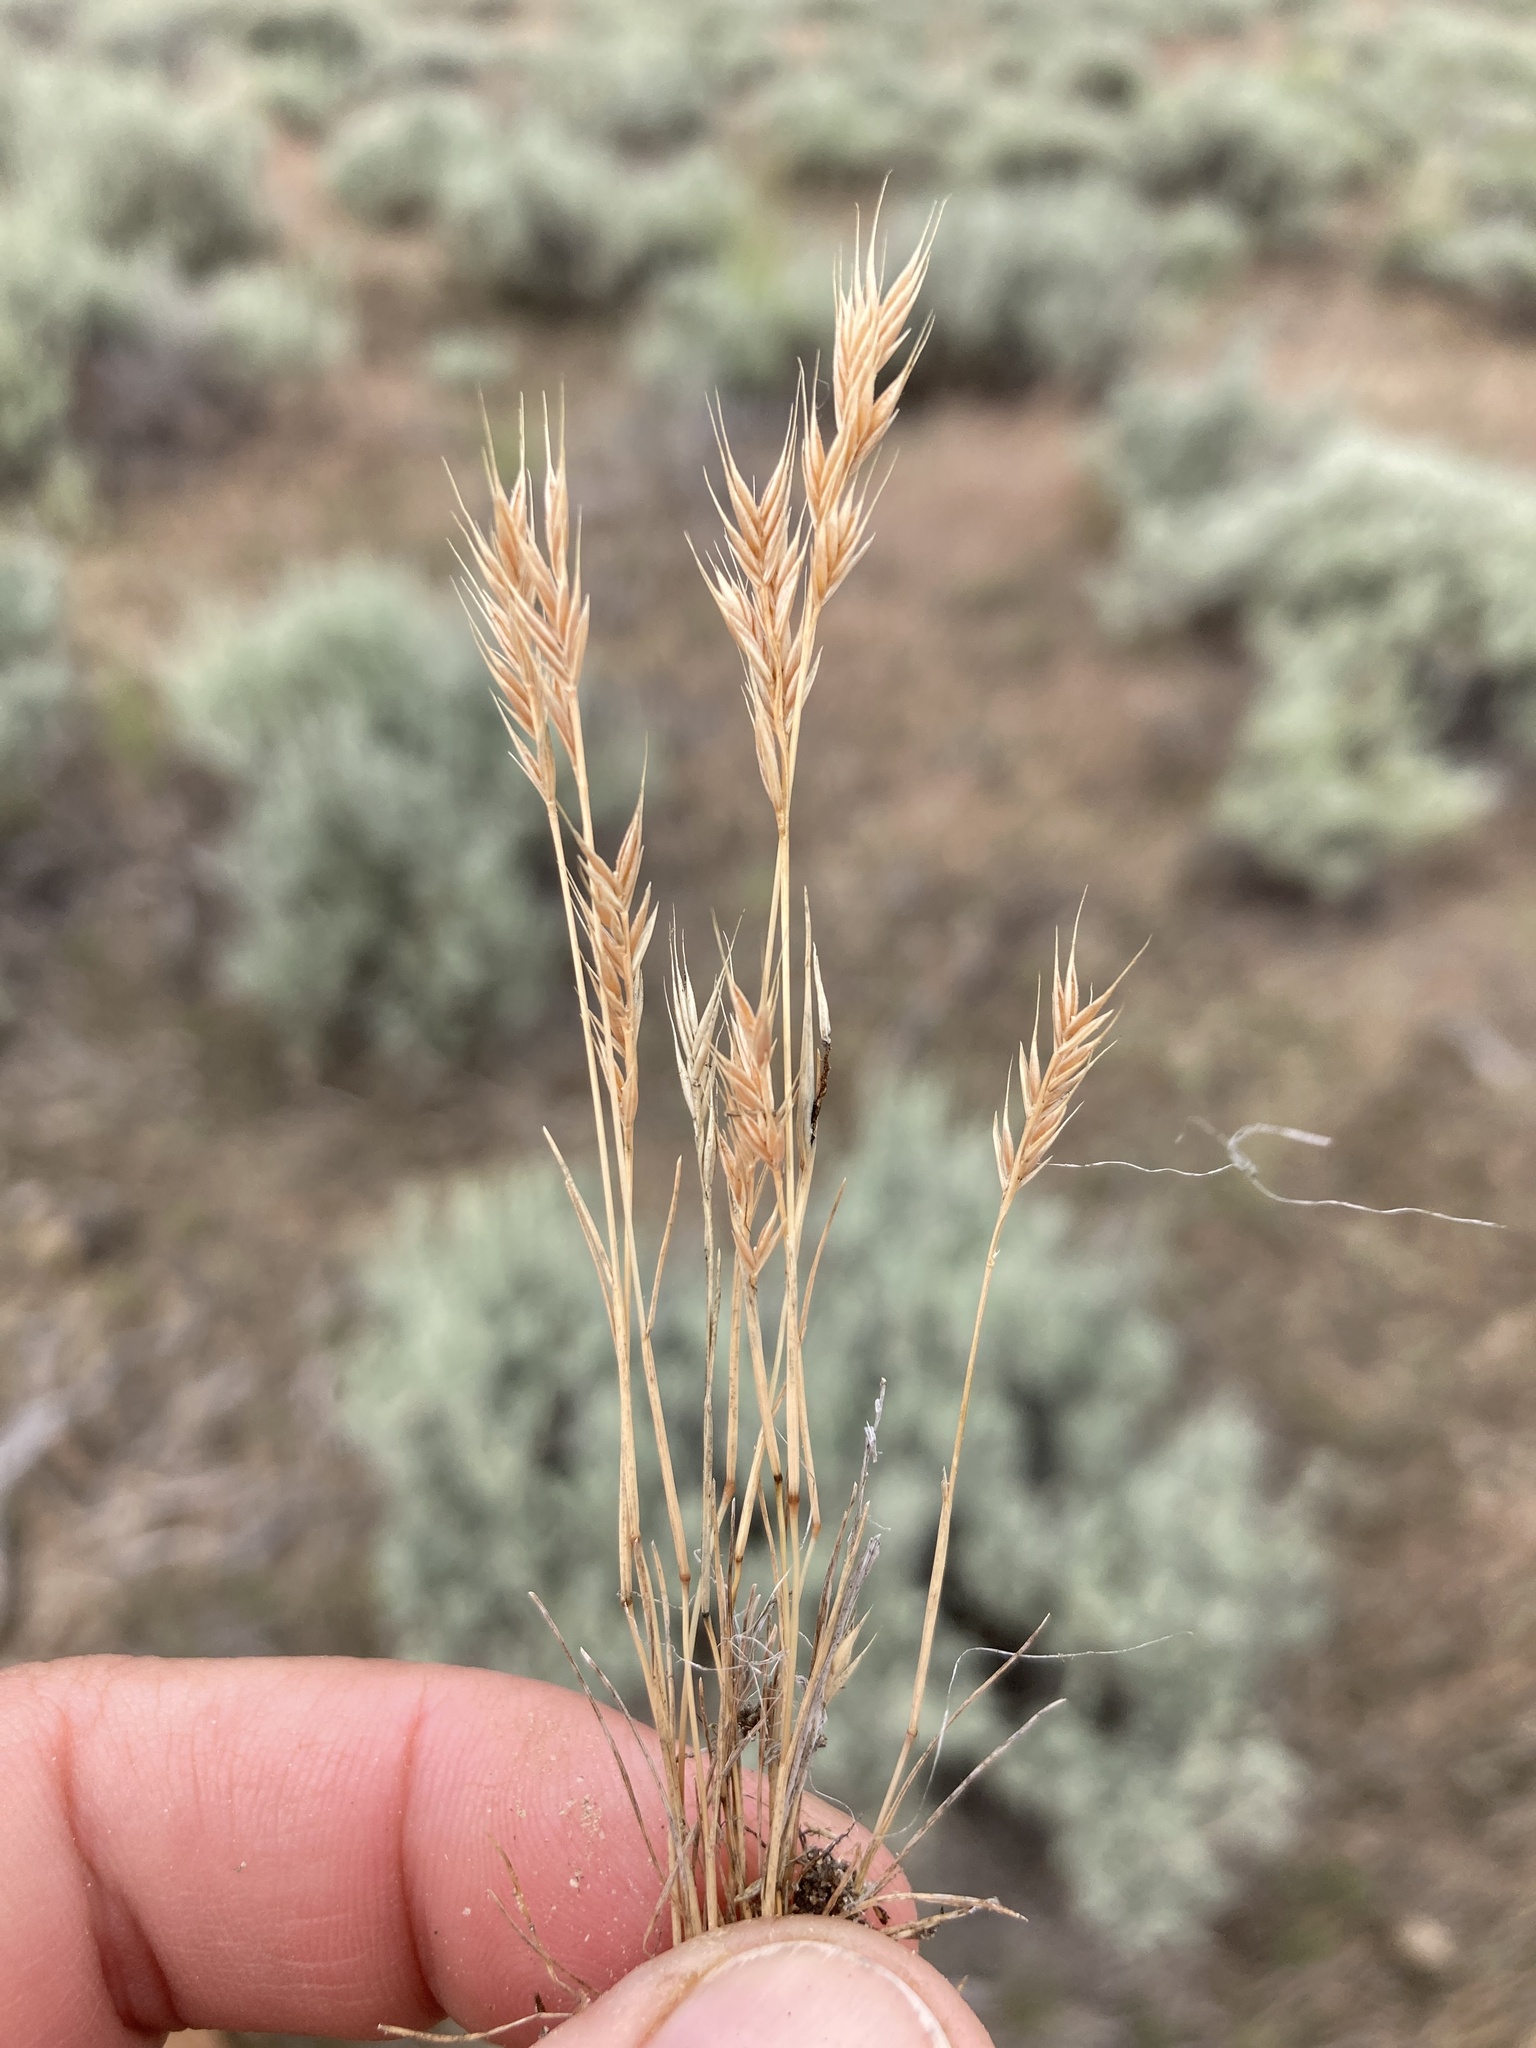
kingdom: Plantae
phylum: Tracheophyta
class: Liliopsida
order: Poales
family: Poaceae
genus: Festuca
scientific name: Festuca octoflora
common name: Sixweeks grass
